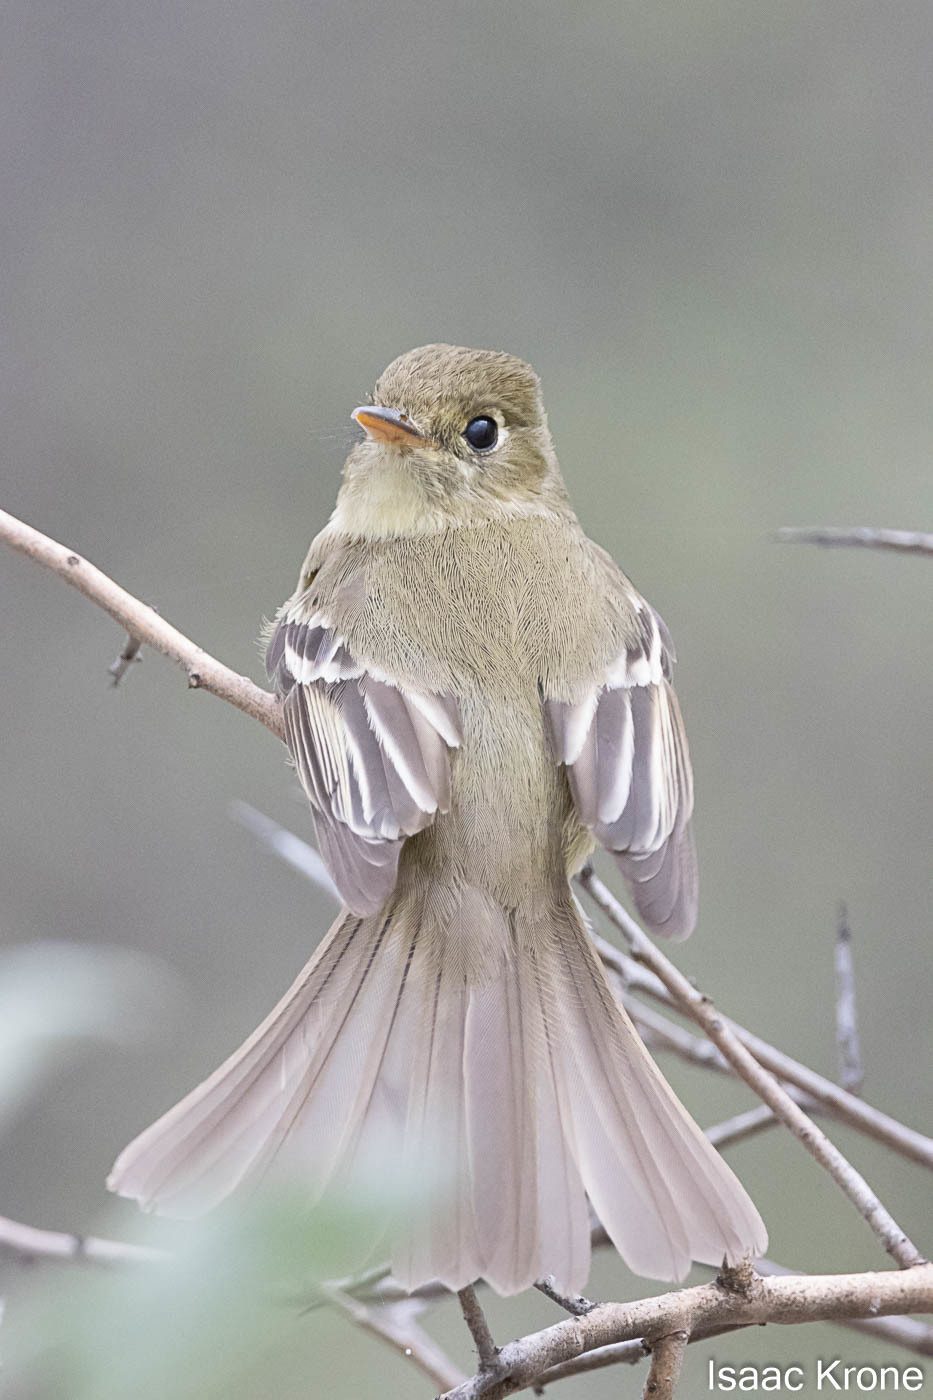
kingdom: Animalia
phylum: Chordata
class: Aves
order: Passeriformes
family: Tyrannidae
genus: Empidonax
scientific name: Empidonax difficilis
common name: Pacific-slope flycatcher
